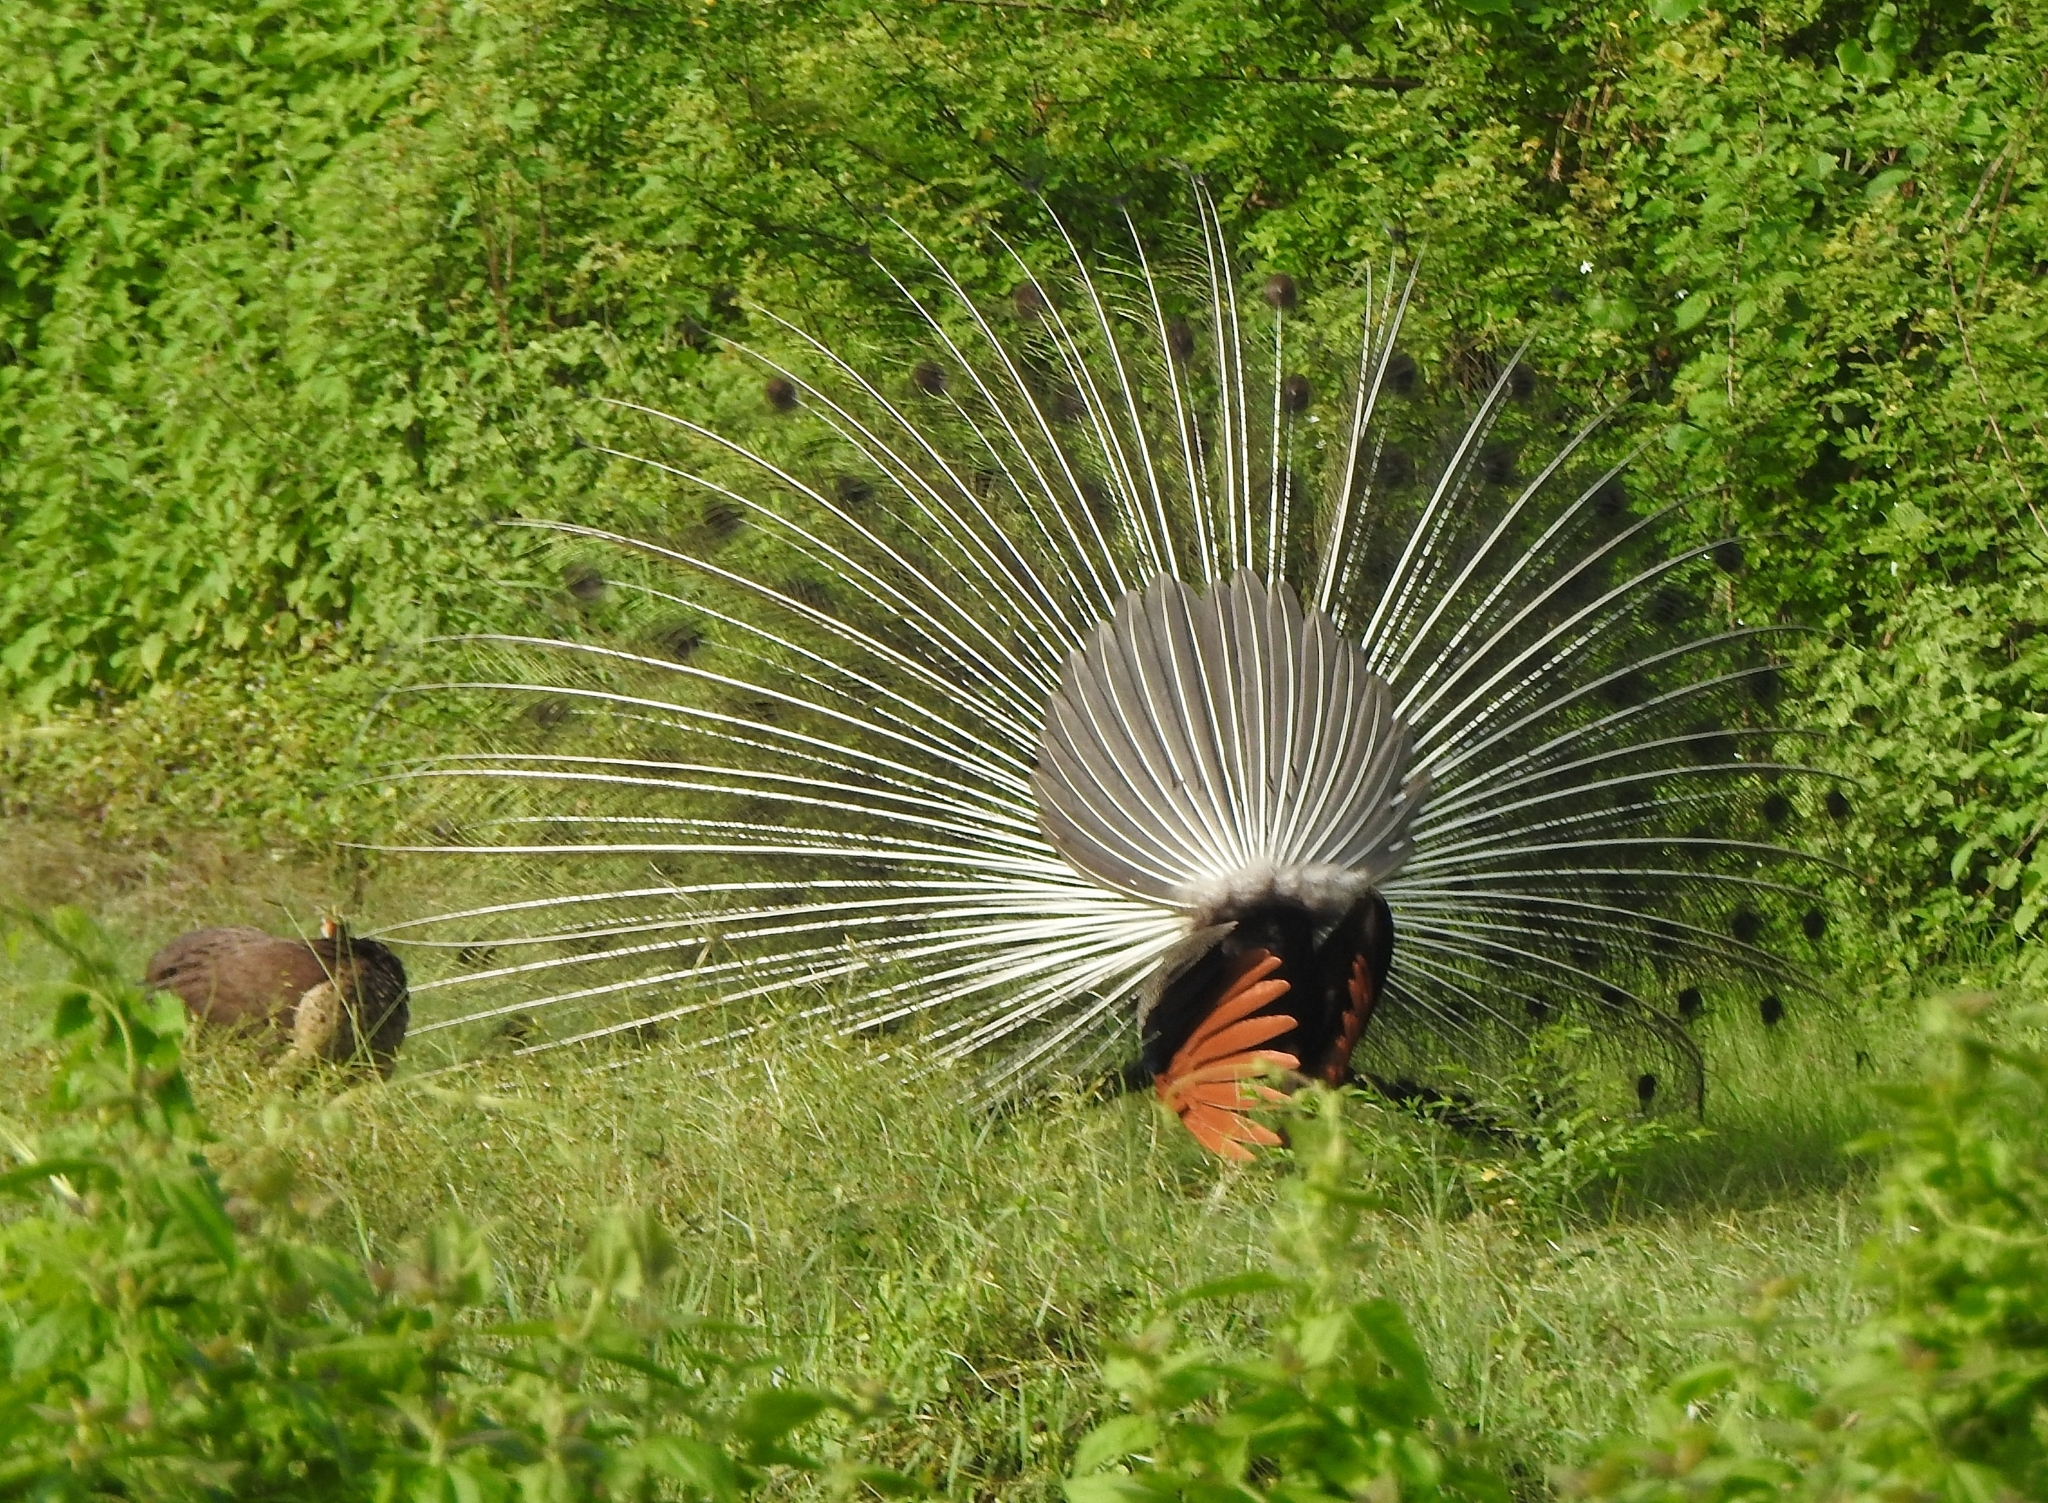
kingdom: Animalia
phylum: Chordata
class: Aves
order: Galliformes
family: Phasianidae
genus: Pavo
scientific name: Pavo cristatus
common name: Indian peafowl
